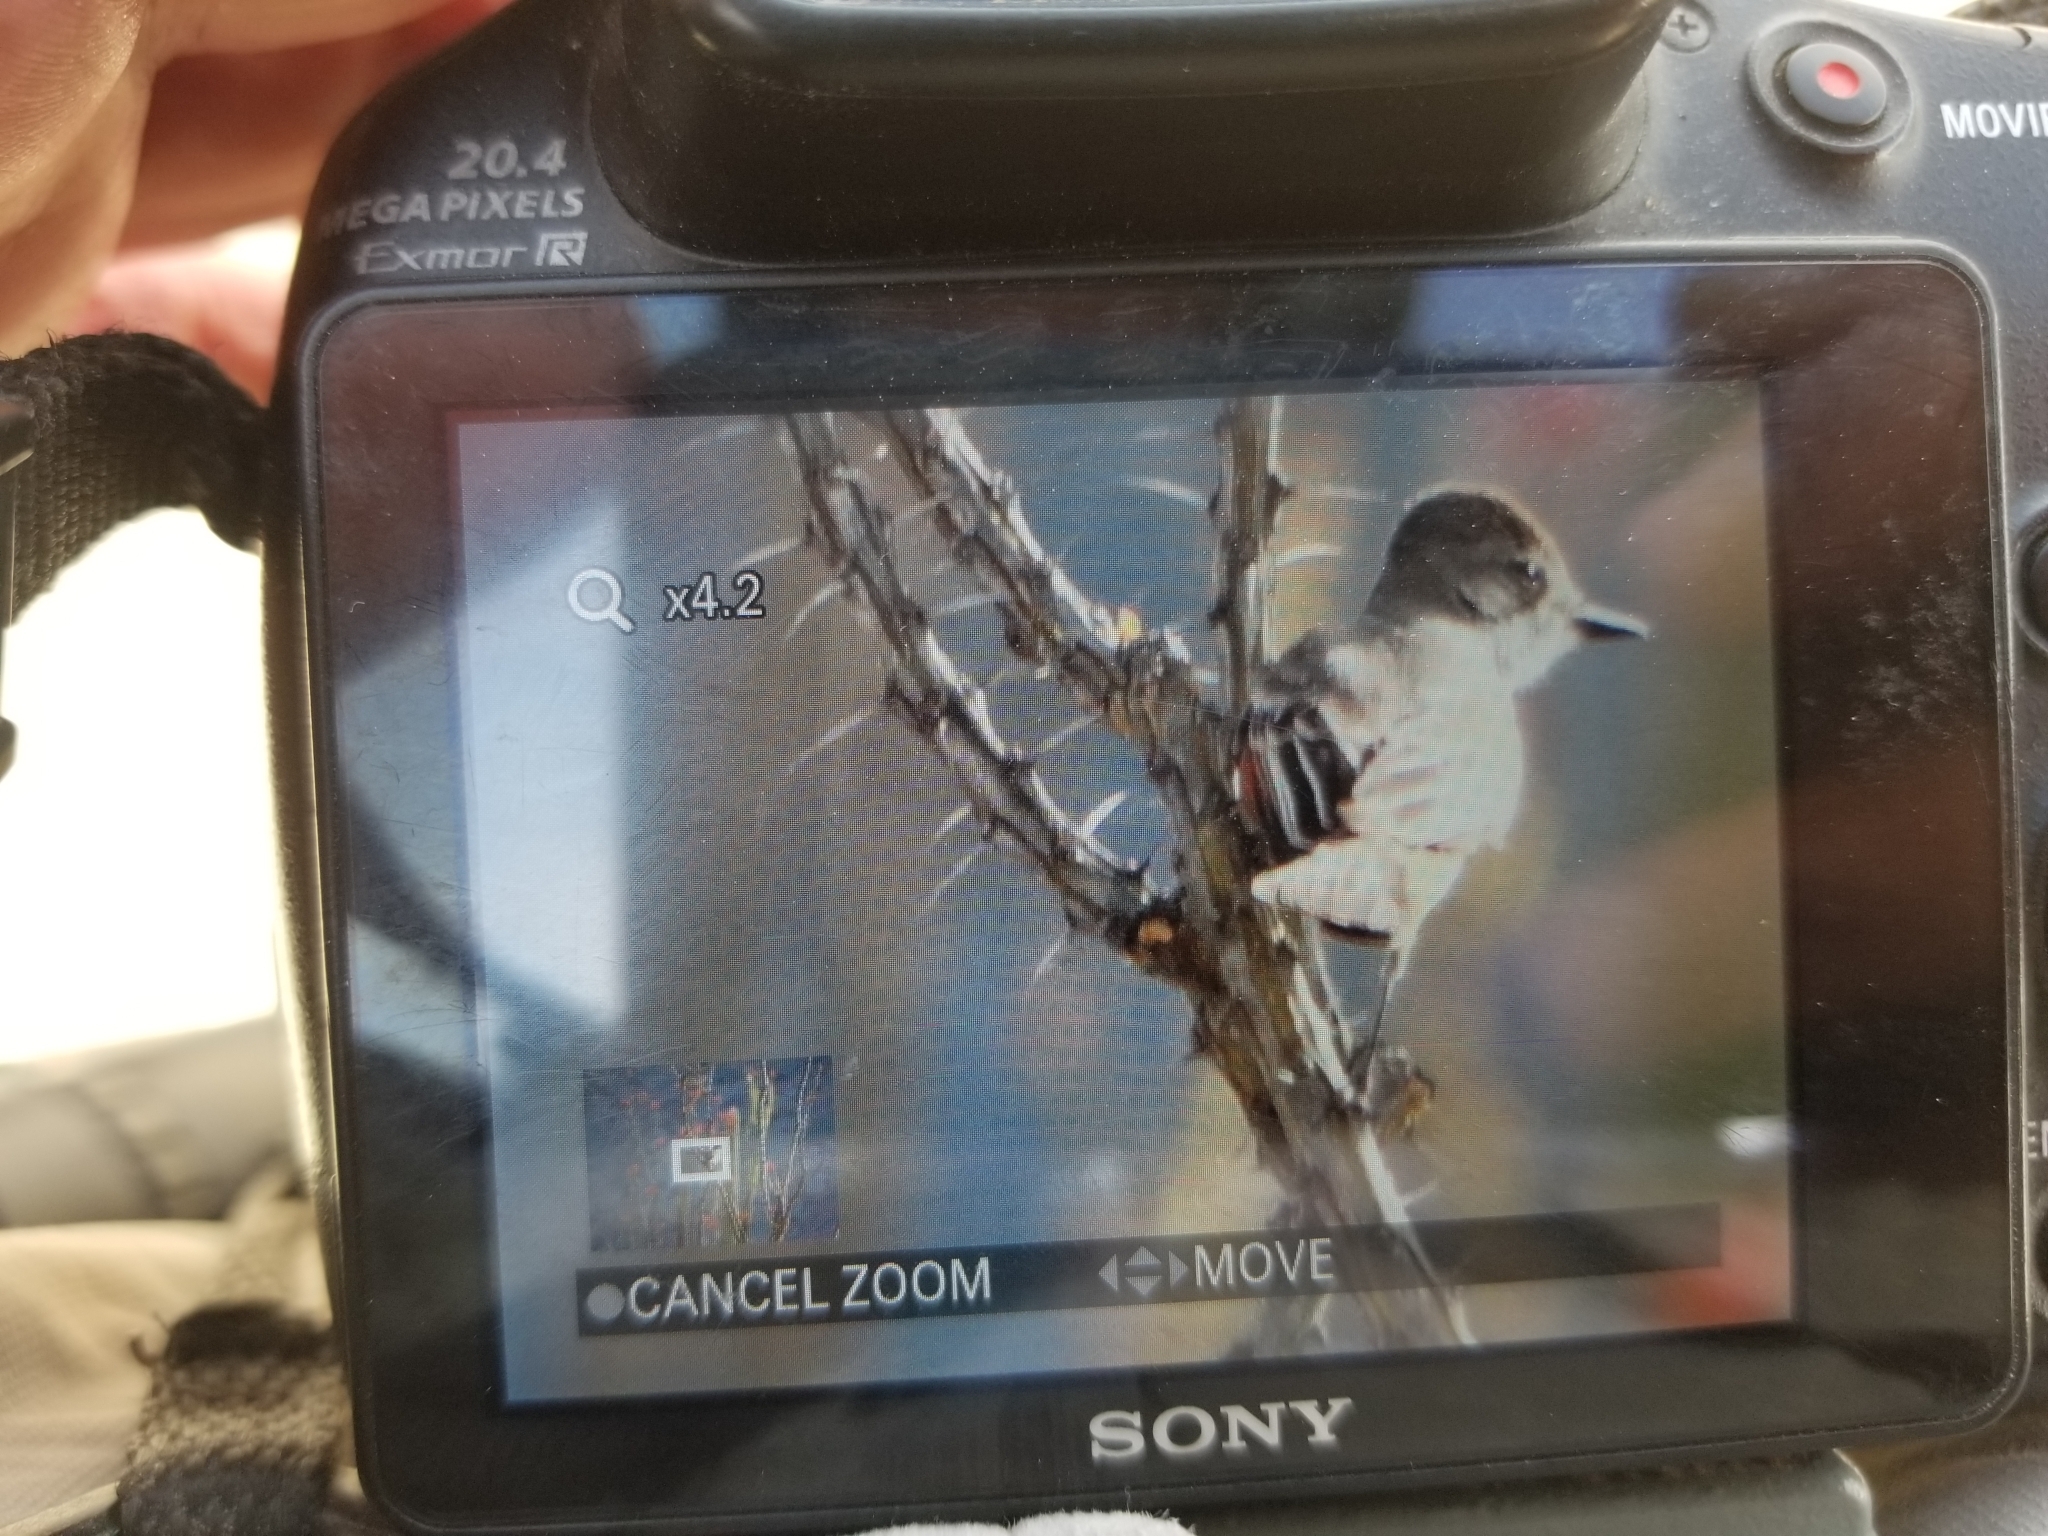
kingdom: Animalia
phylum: Chordata
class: Aves
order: Passeriformes
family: Tyrannidae
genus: Myiarchus
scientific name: Myiarchus cinerascens
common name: Ash-throated flycatcher
